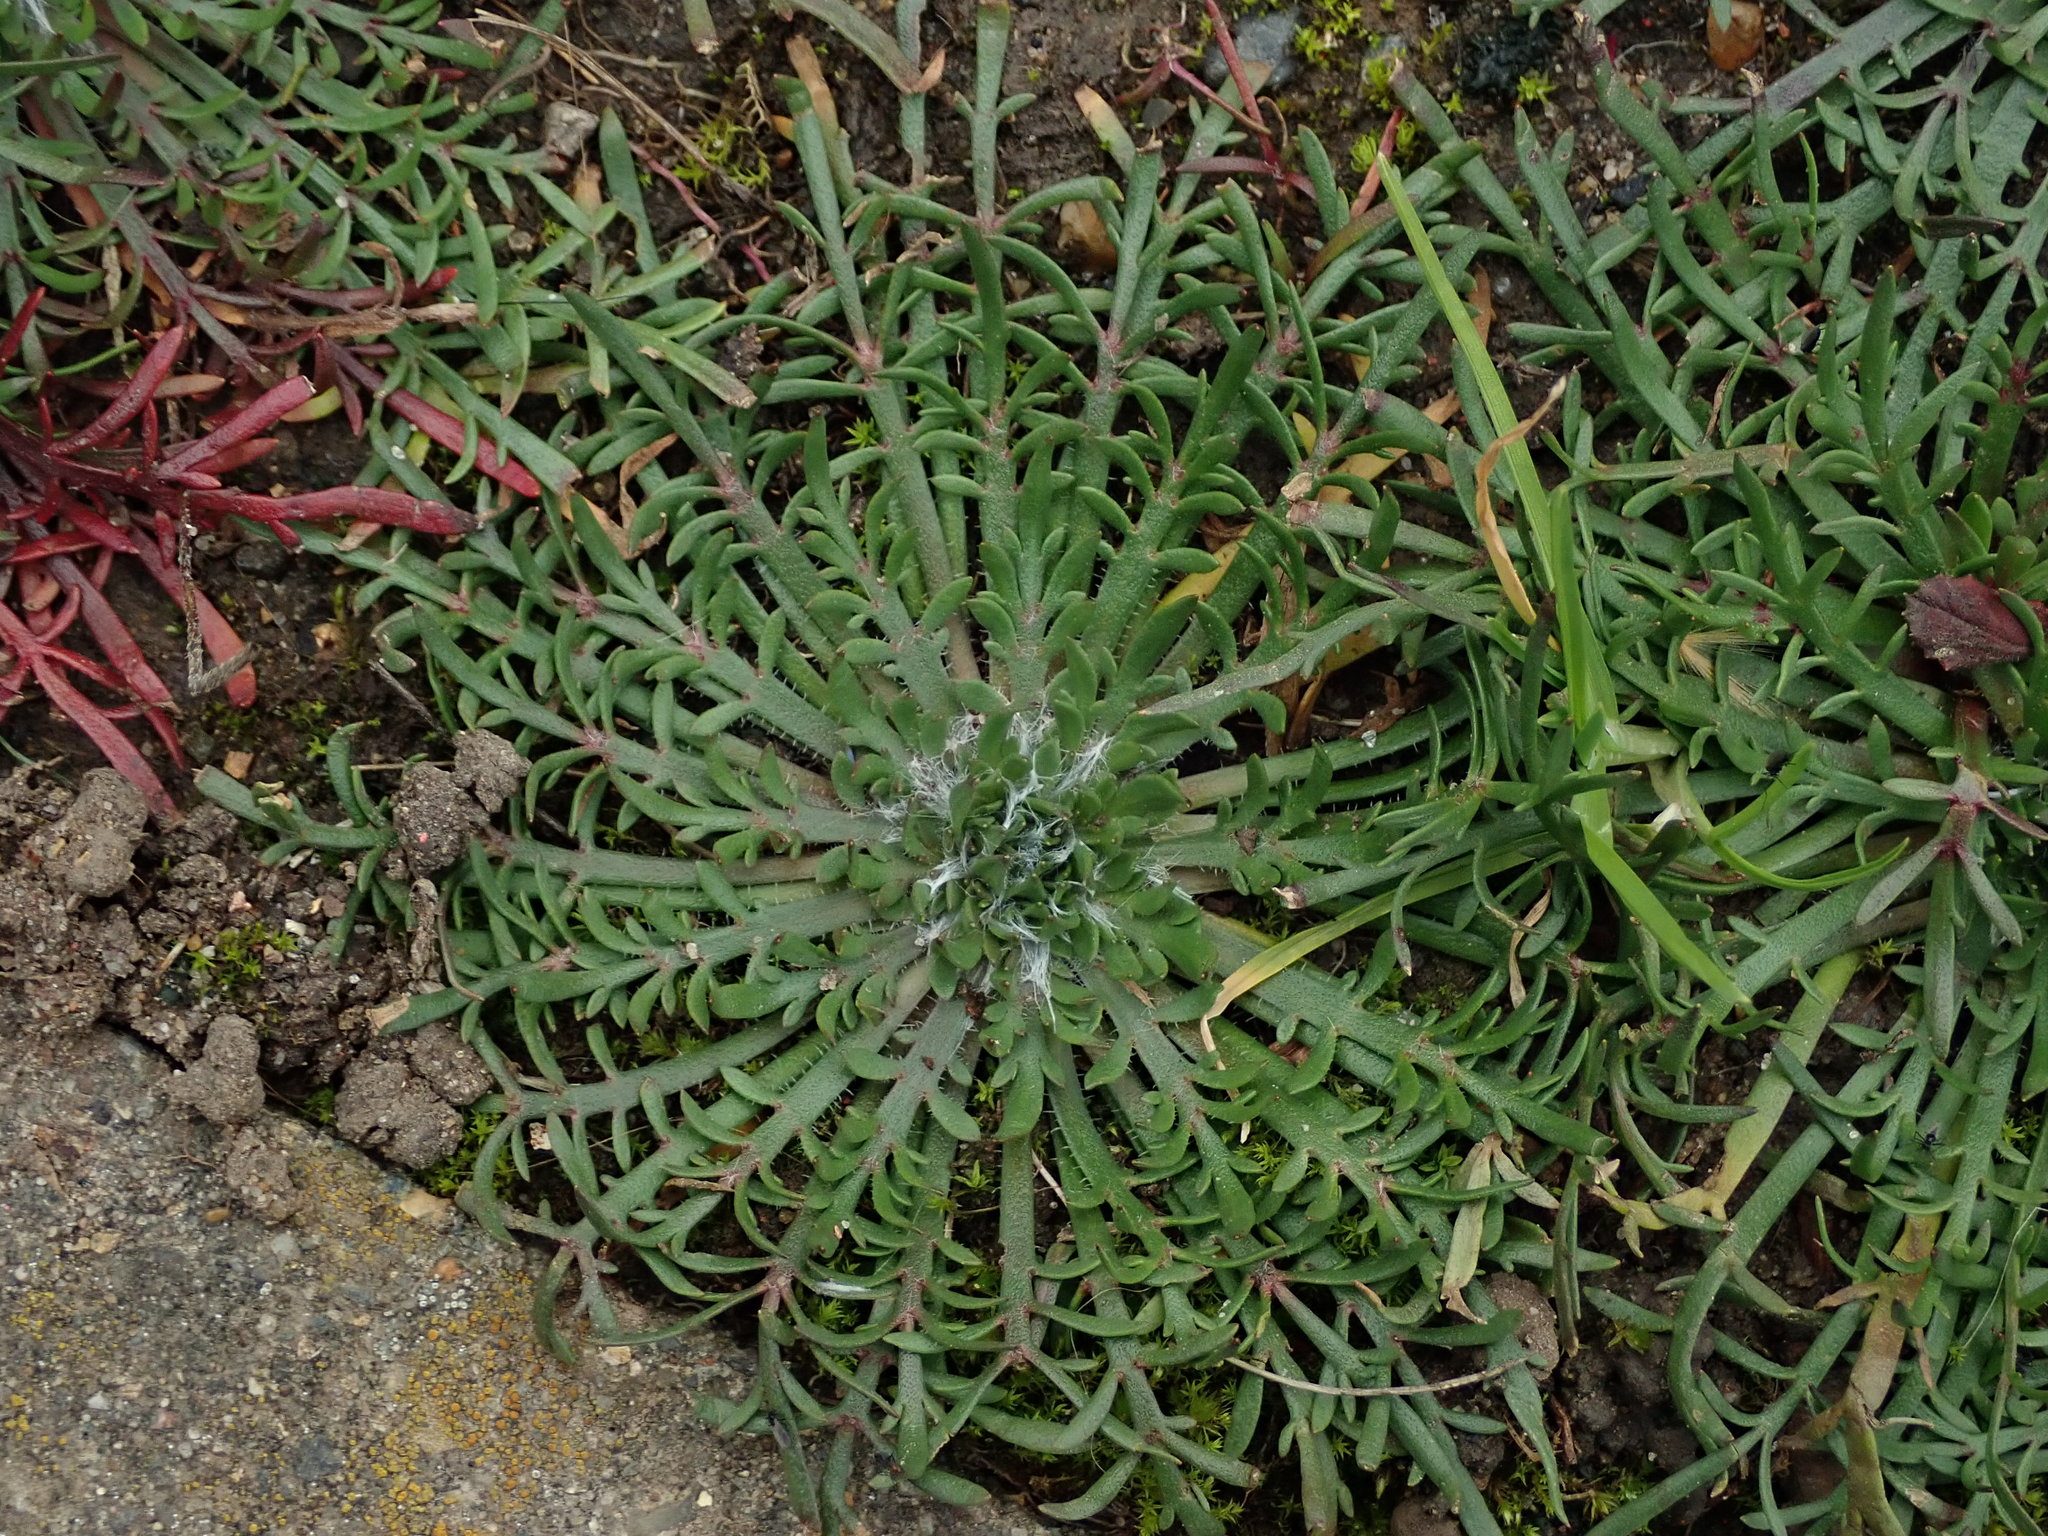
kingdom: Plantae
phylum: Tracheophyta
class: Magnoliopsida
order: Lamiales
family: Plantaginaceae
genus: Plantago
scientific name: Plantago coronopus
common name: Buck's-horn plantain
